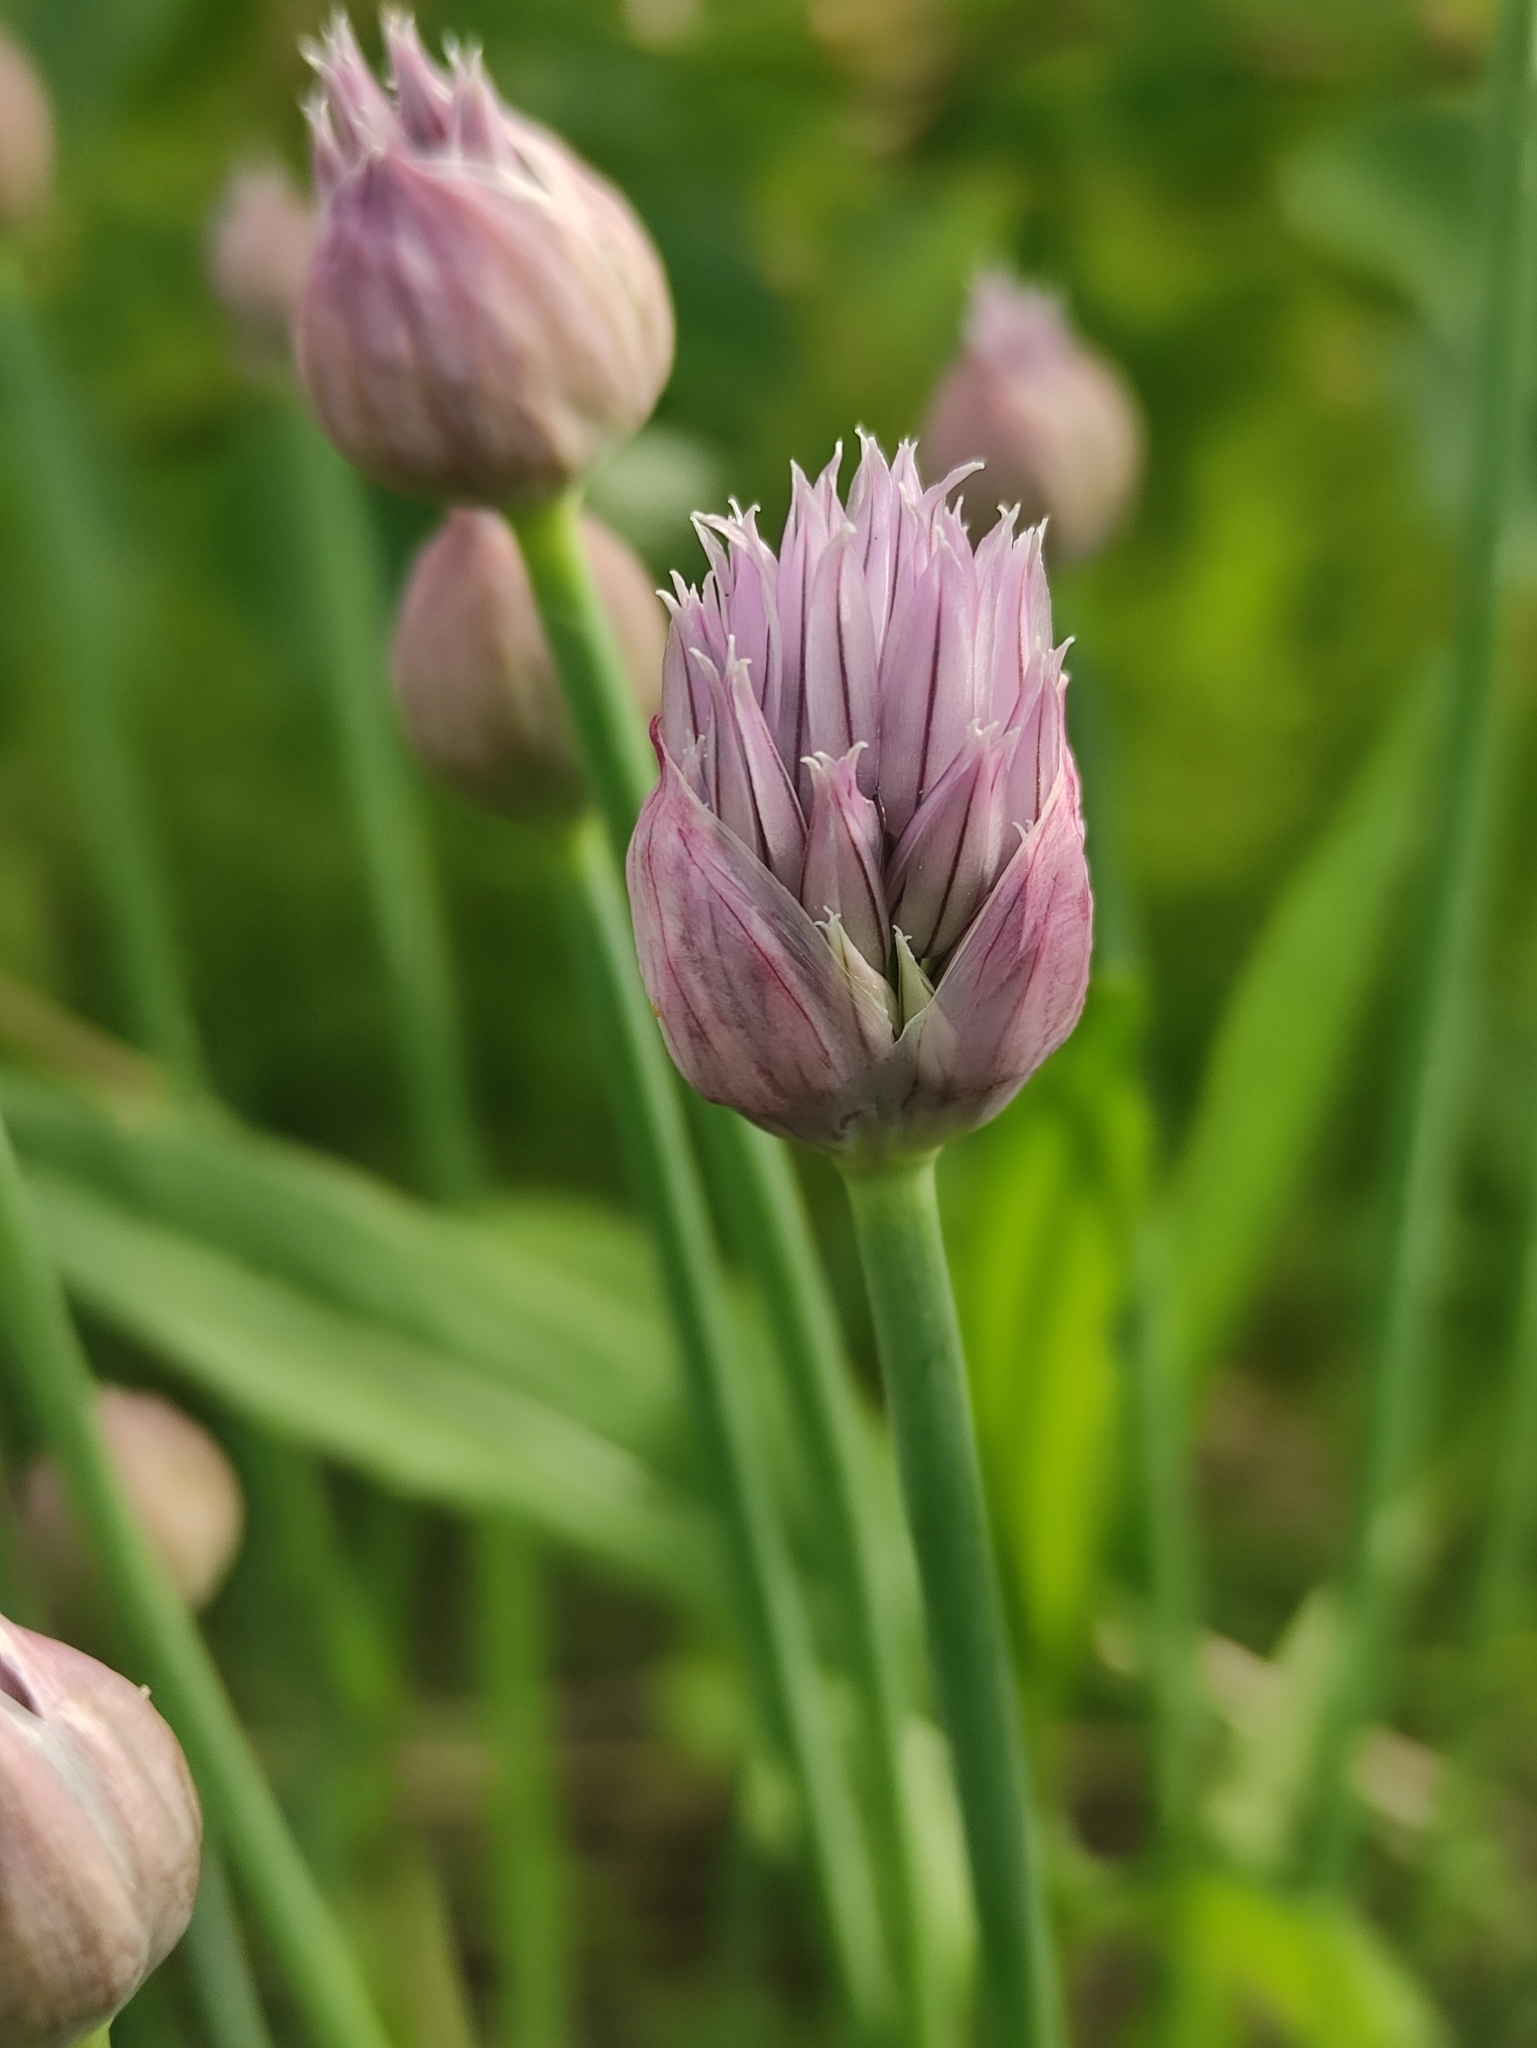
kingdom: Plantae
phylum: Tracheophyta
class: Liliopsida
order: Asparagales
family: Amaryllidaceae
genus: Allium
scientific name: Allium schoenoprasum
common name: Chives
